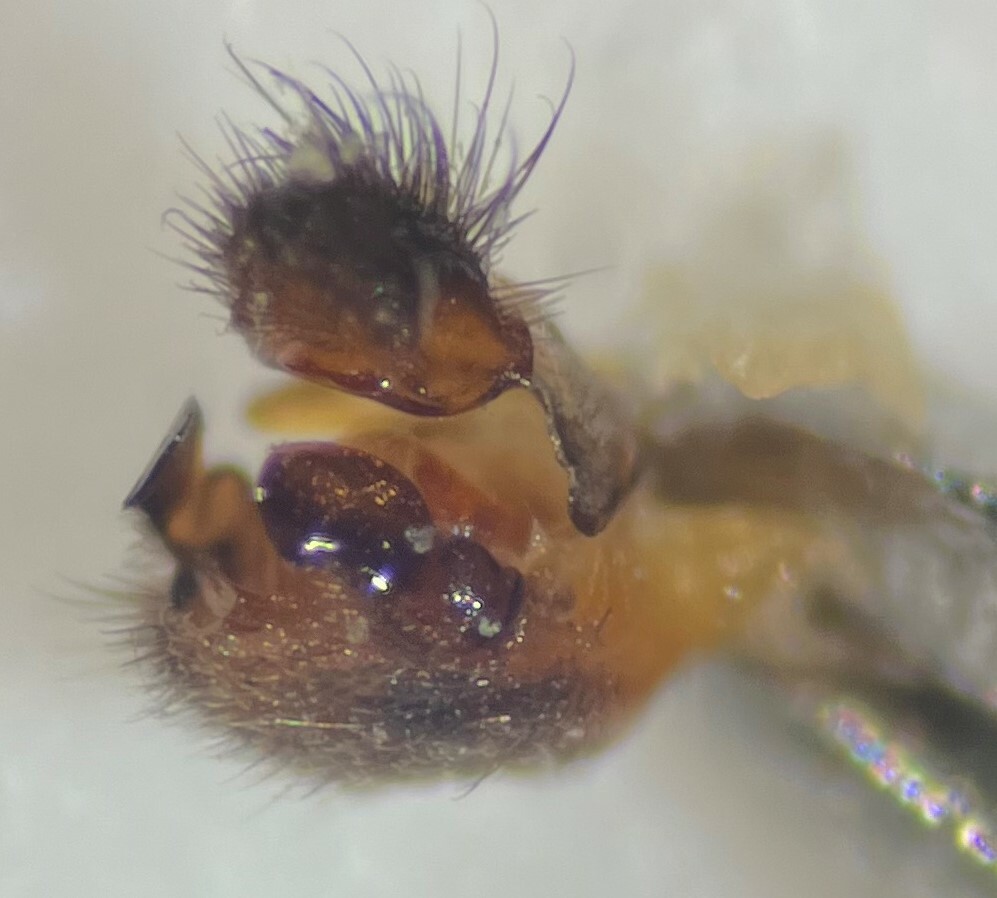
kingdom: Animalia
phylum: Arthropoda
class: Insecta
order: Hemiptera
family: Veliidae
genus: Rhagovelia
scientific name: Rhagovelia varipes
